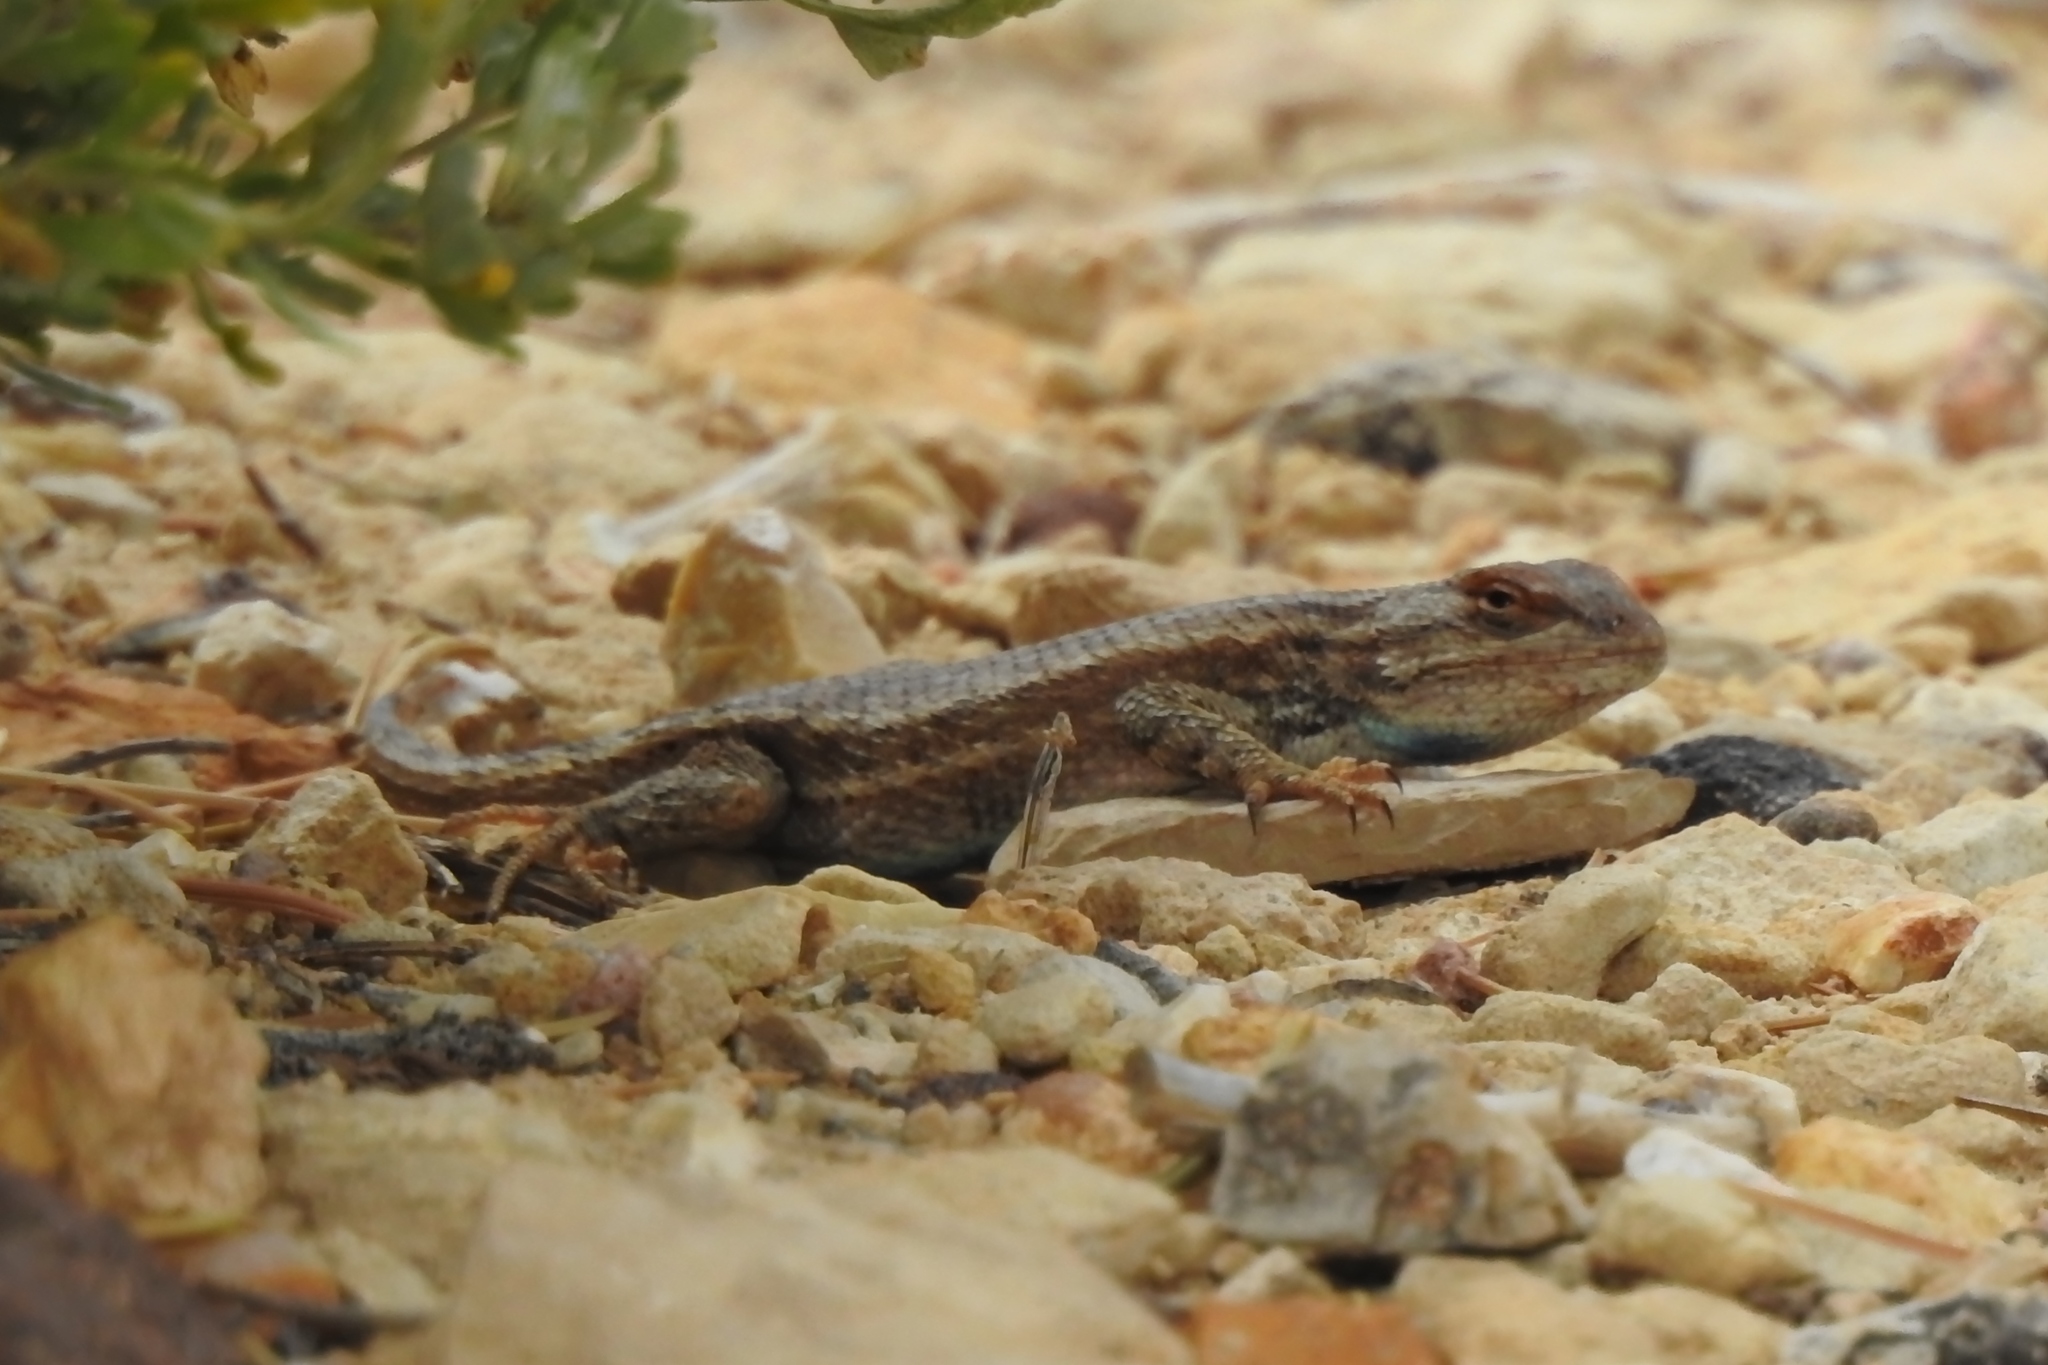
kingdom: Animalia
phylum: Chordata
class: Squamata
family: Phrynosomatidae
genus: Sceloporus
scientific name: Sceloporus tristichus
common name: Plateau fence lizard
